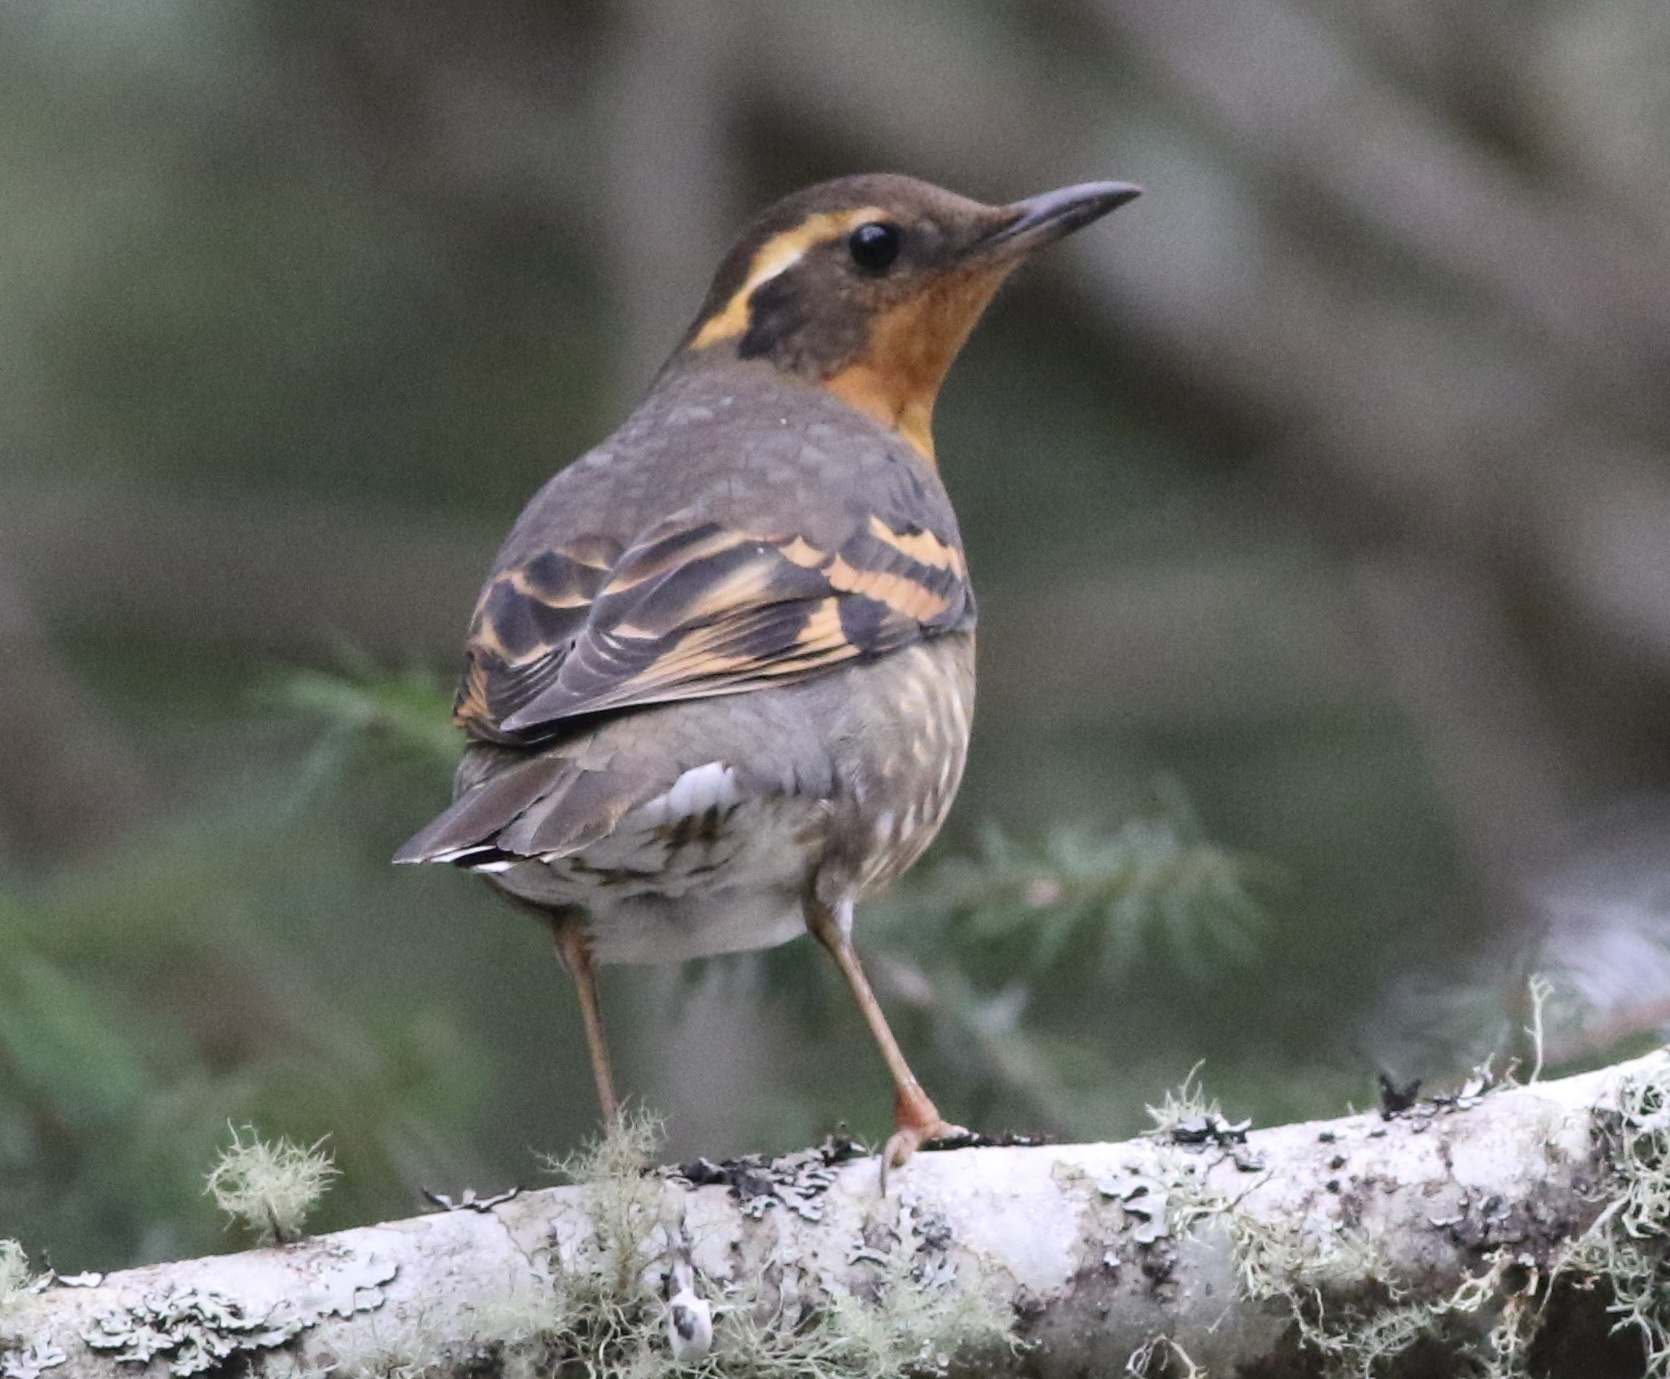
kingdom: Animalia
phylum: Chordata
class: Aves
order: Passeriformes
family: Turdidae
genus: Ixoreus
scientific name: Ixoreus naevius
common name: Varied thrush
